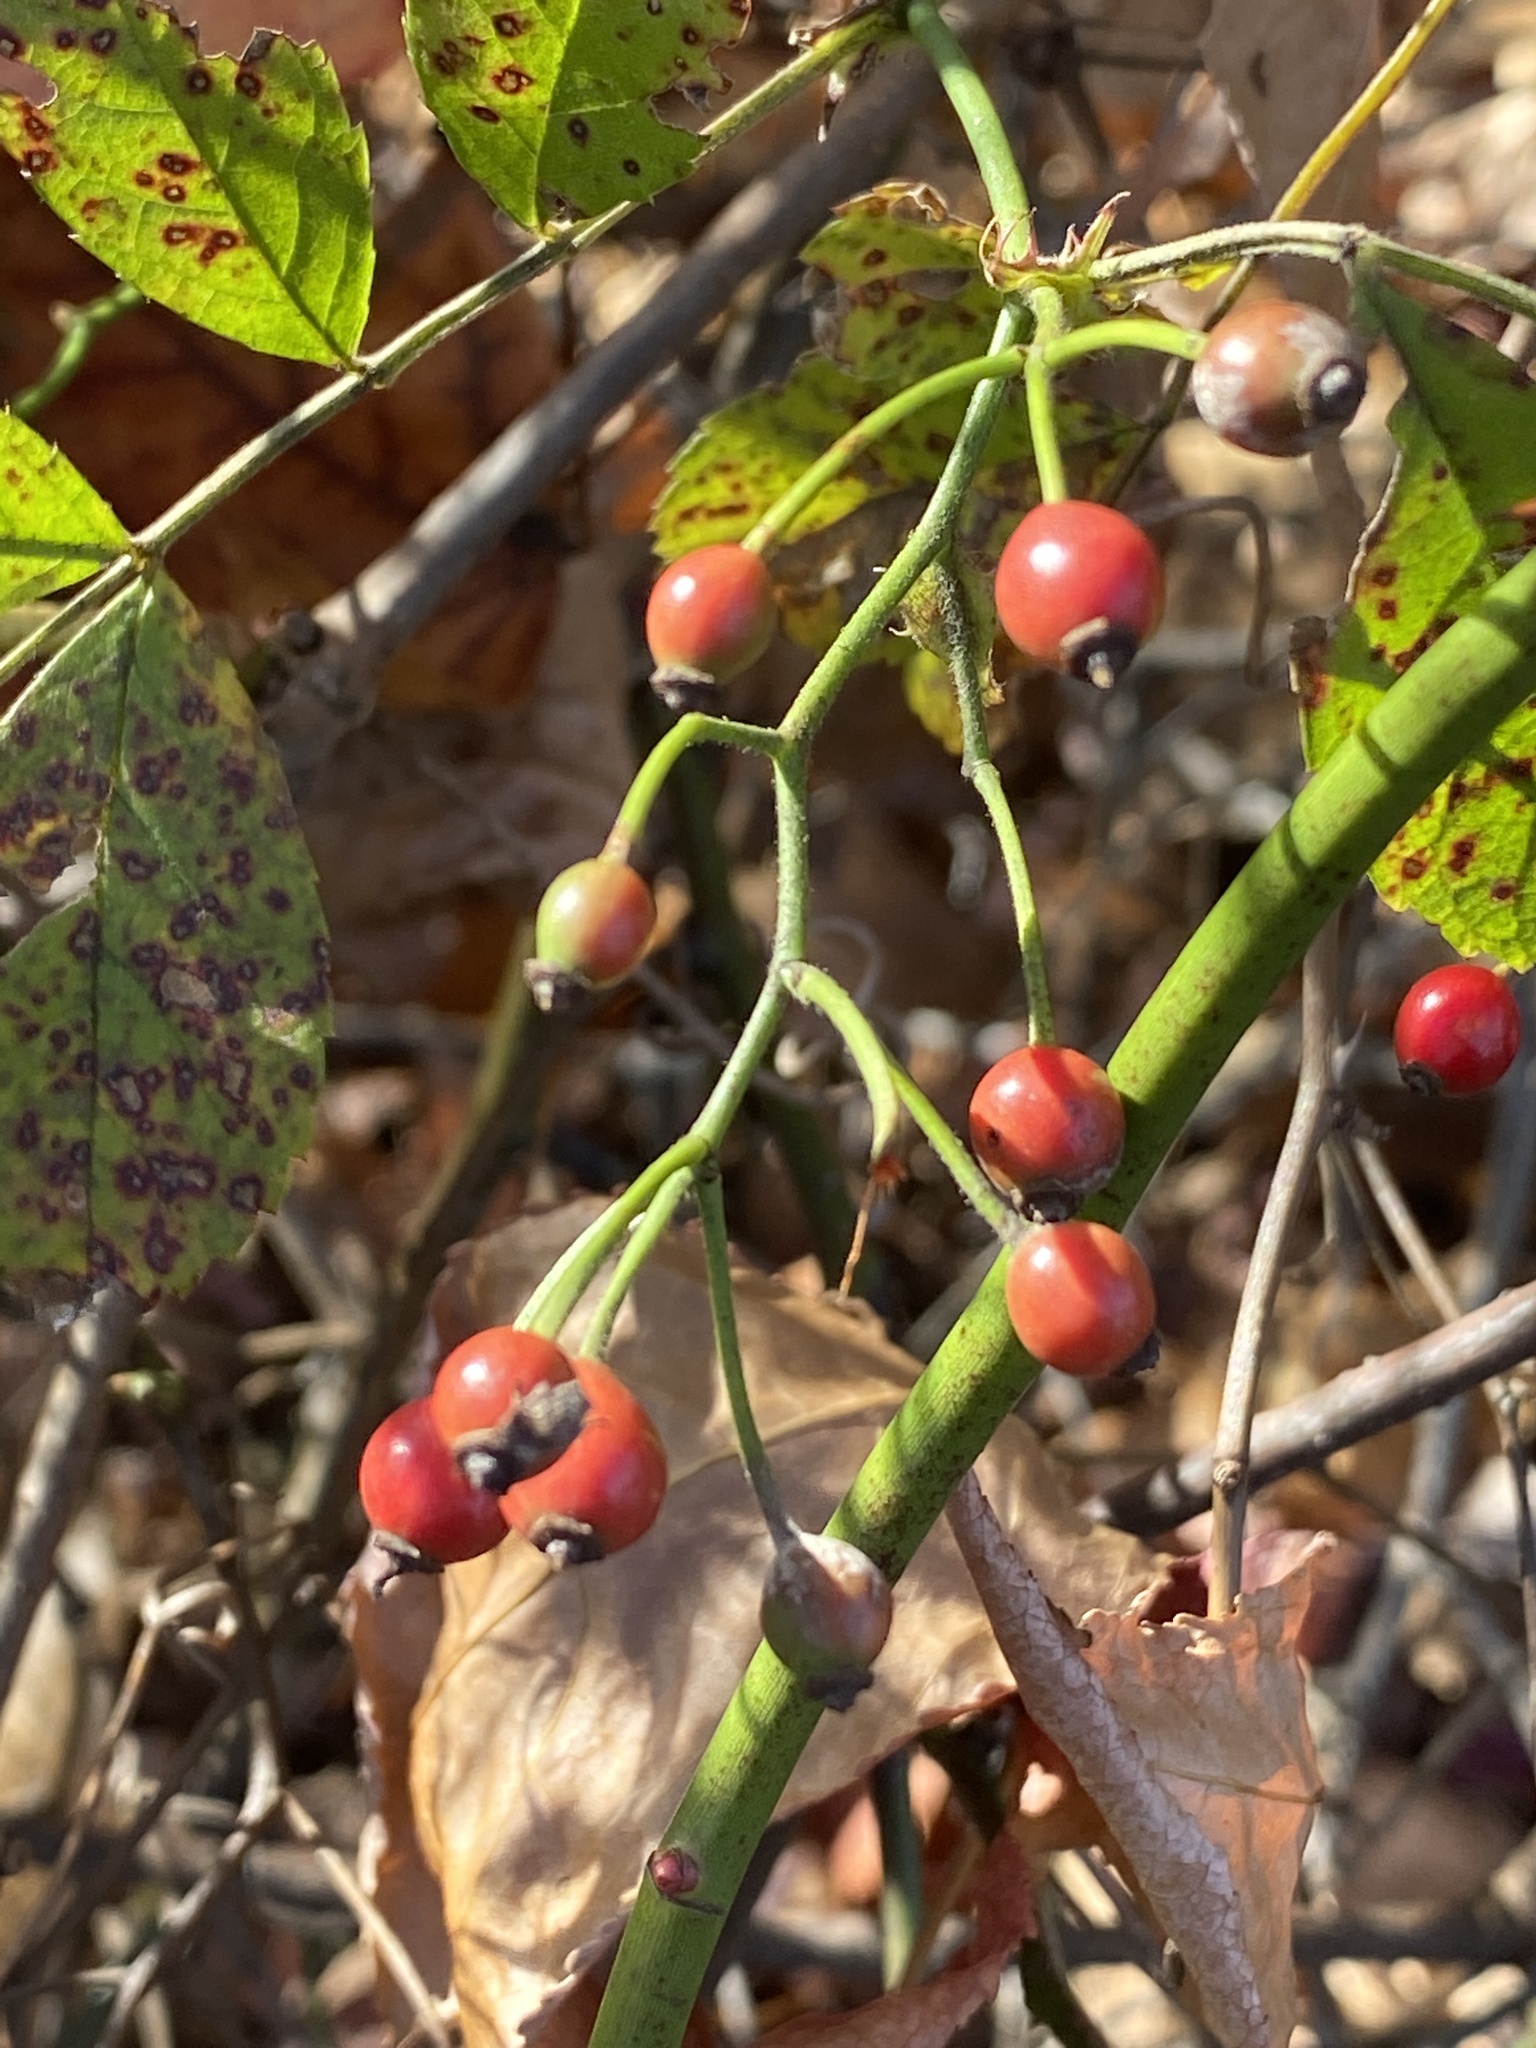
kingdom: Plantae
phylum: Tracheophyta
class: Magnoliopsida
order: Rosales
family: Rosaceae
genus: Rosa
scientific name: Rosa multiflora
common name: Multiflora rose
